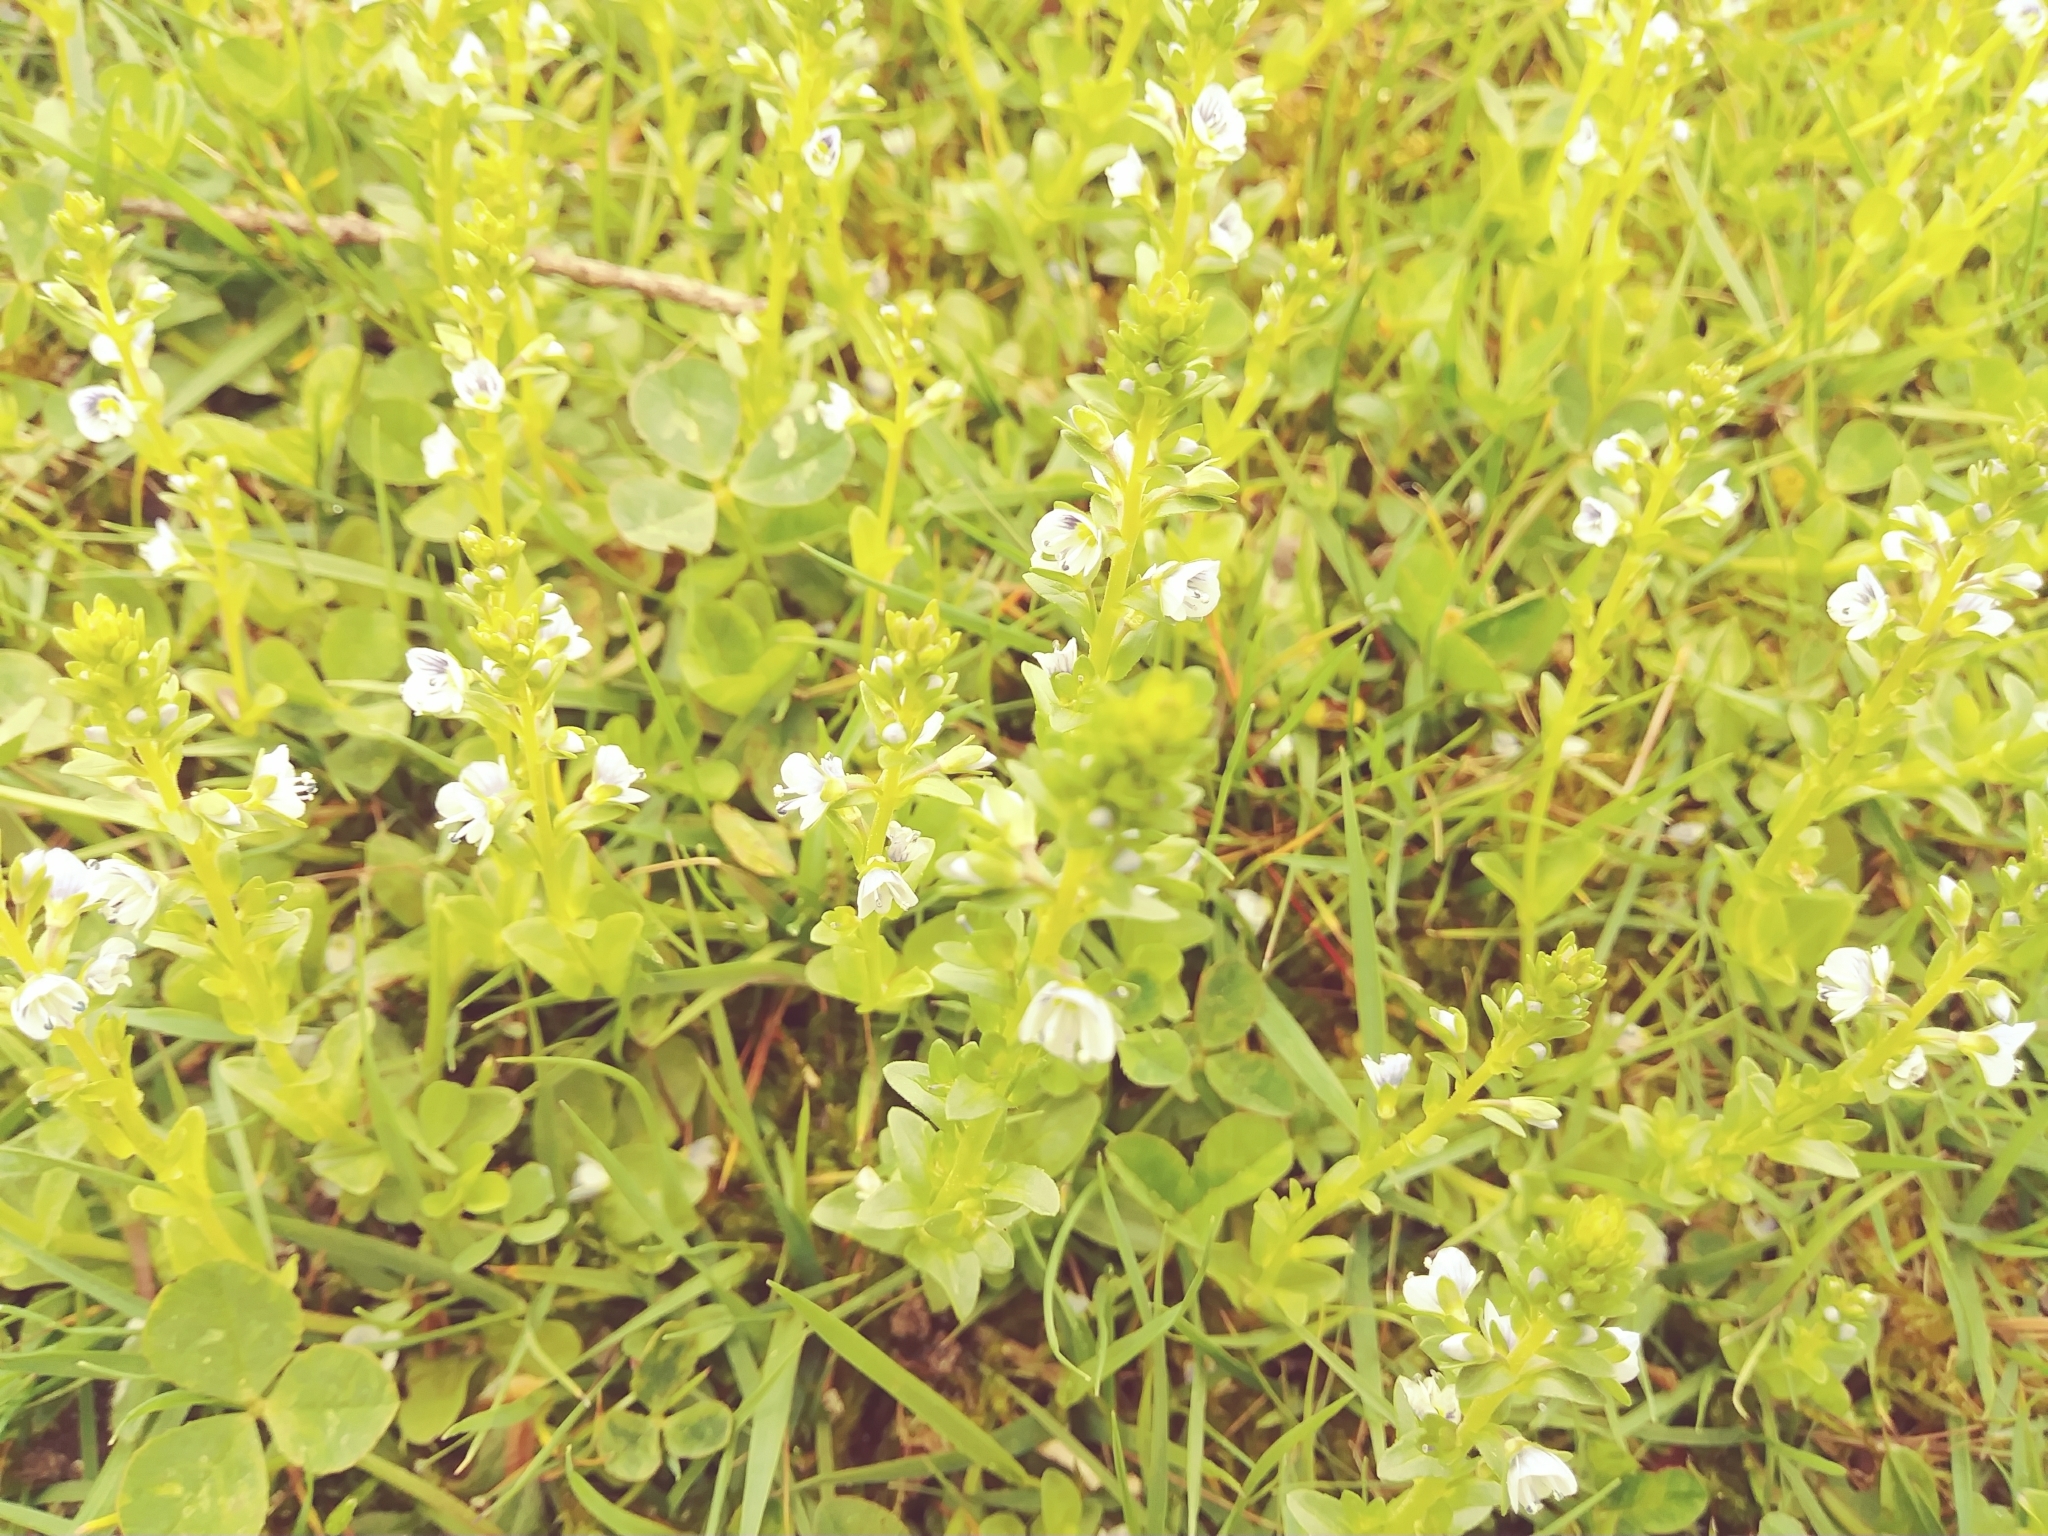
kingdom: Plantae
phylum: Tracheophyta
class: Magnoliopsida
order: Lamiales
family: Plantaginaceae
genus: Veronica
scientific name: Veronica serpyllifolia
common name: Thyme-leaved speedwell
